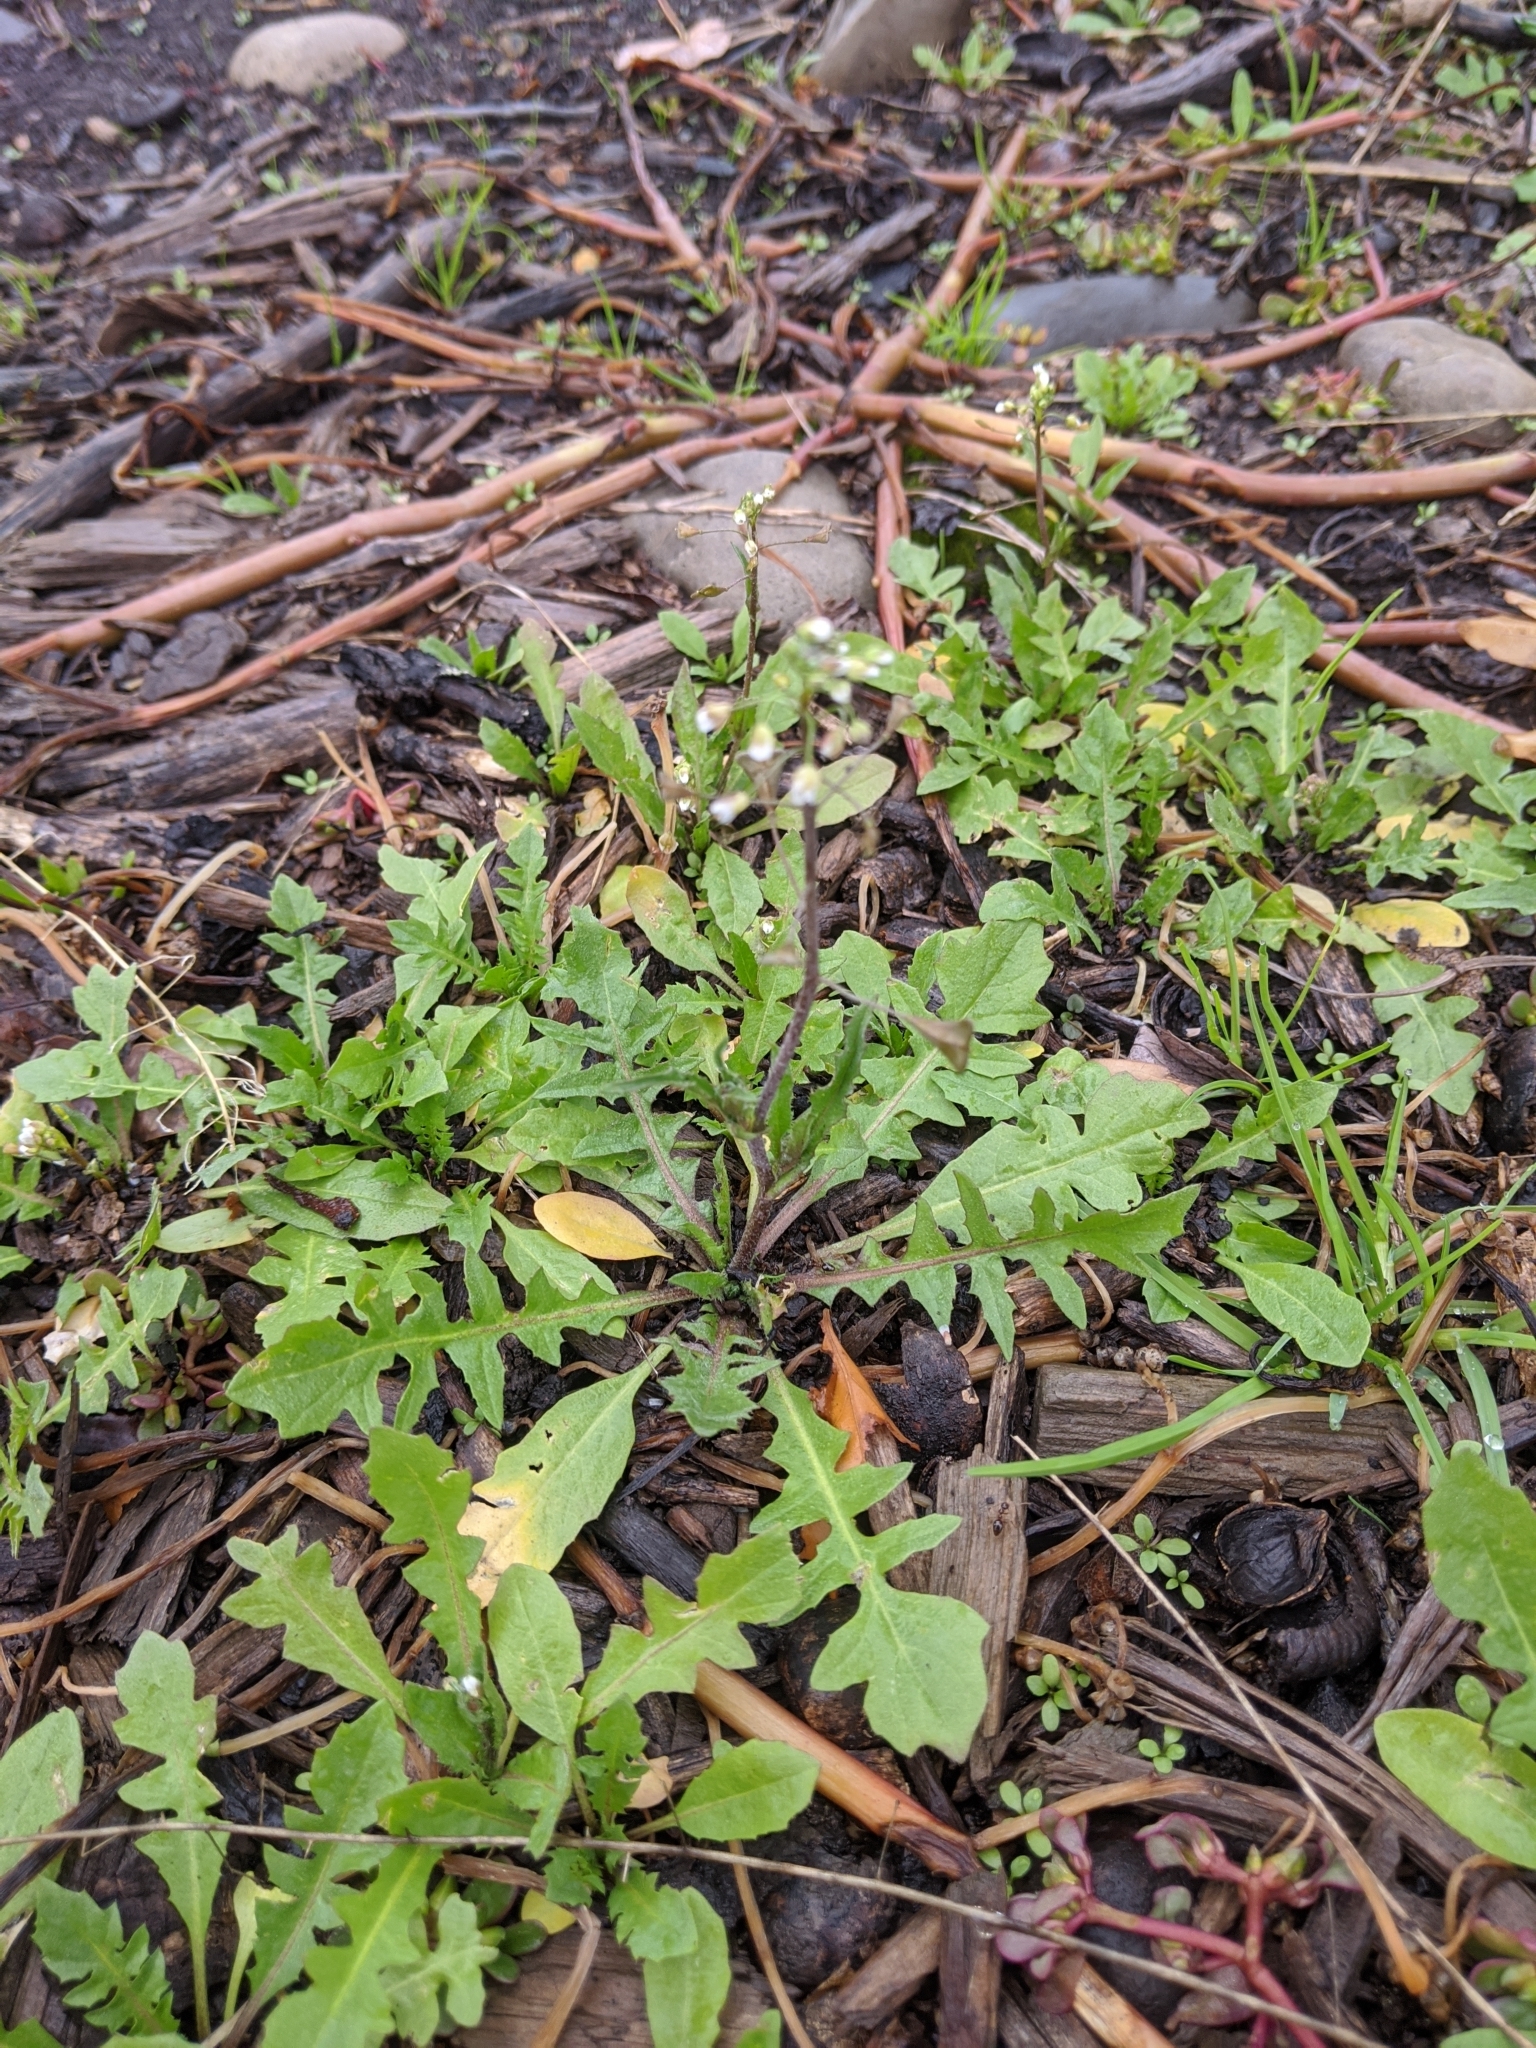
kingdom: Plantae
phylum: Tracheophyta
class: Magnoliopsida
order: Brassicales
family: Brassicaceae
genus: Capsella
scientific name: Capsella bursa-pastoris
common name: Shepherd's purse
